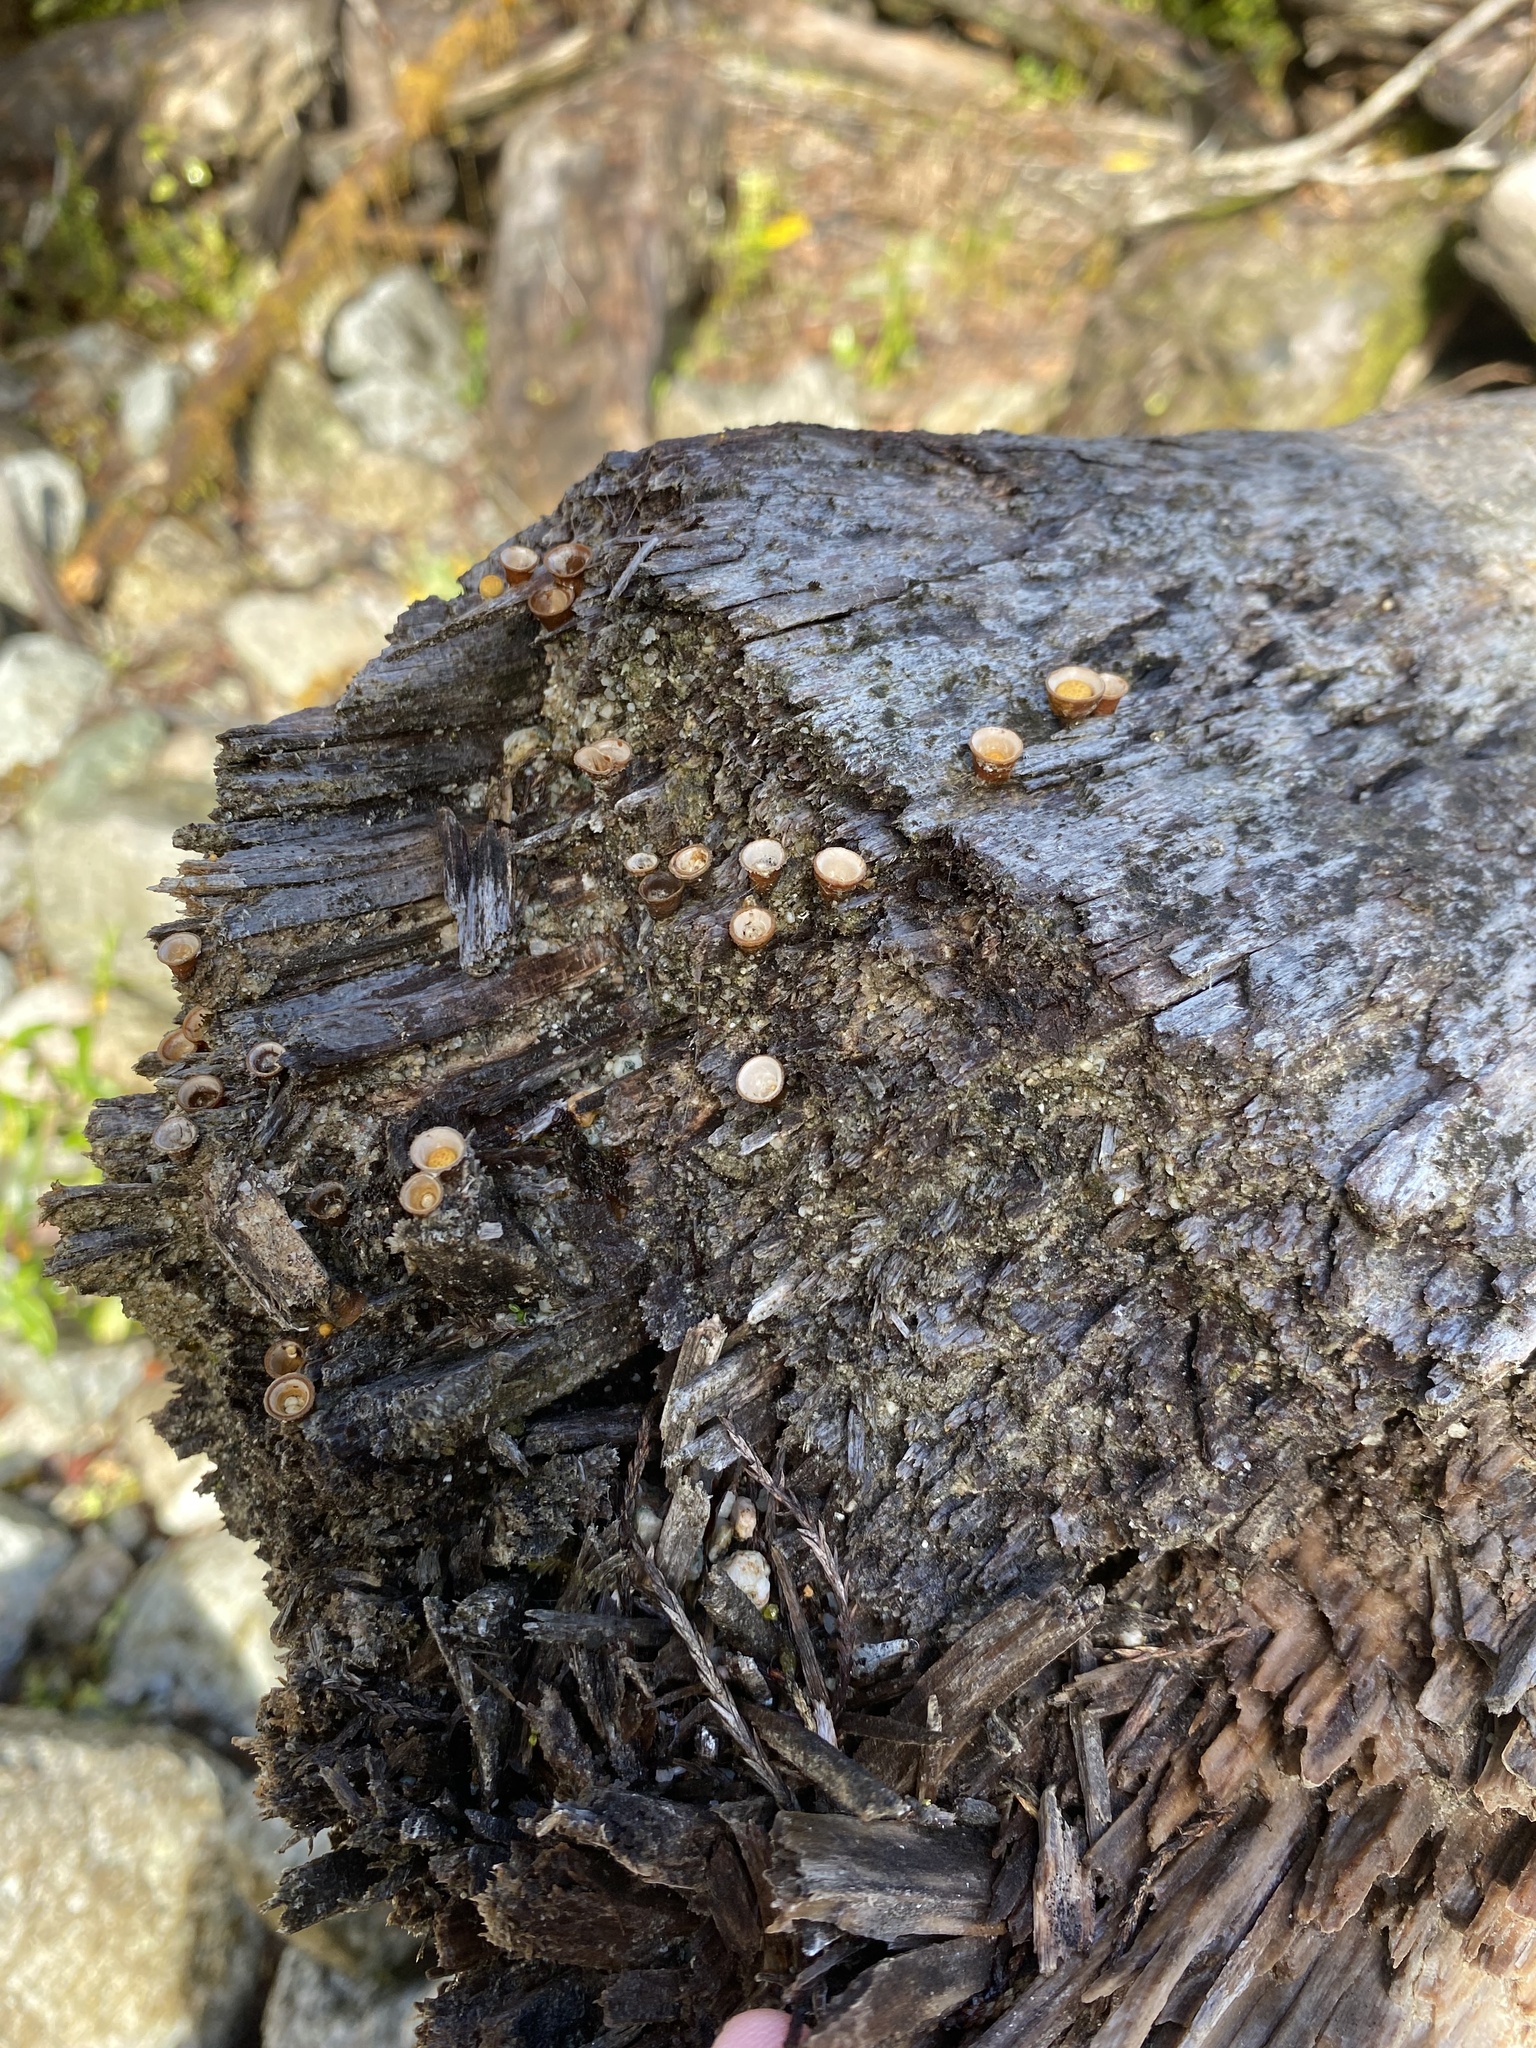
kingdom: Fungi
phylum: Basidiomycota
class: Agaricomycetes
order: Agaricales
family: Nidulariaceae
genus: Crucibulum
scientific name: Crucibulum simile
